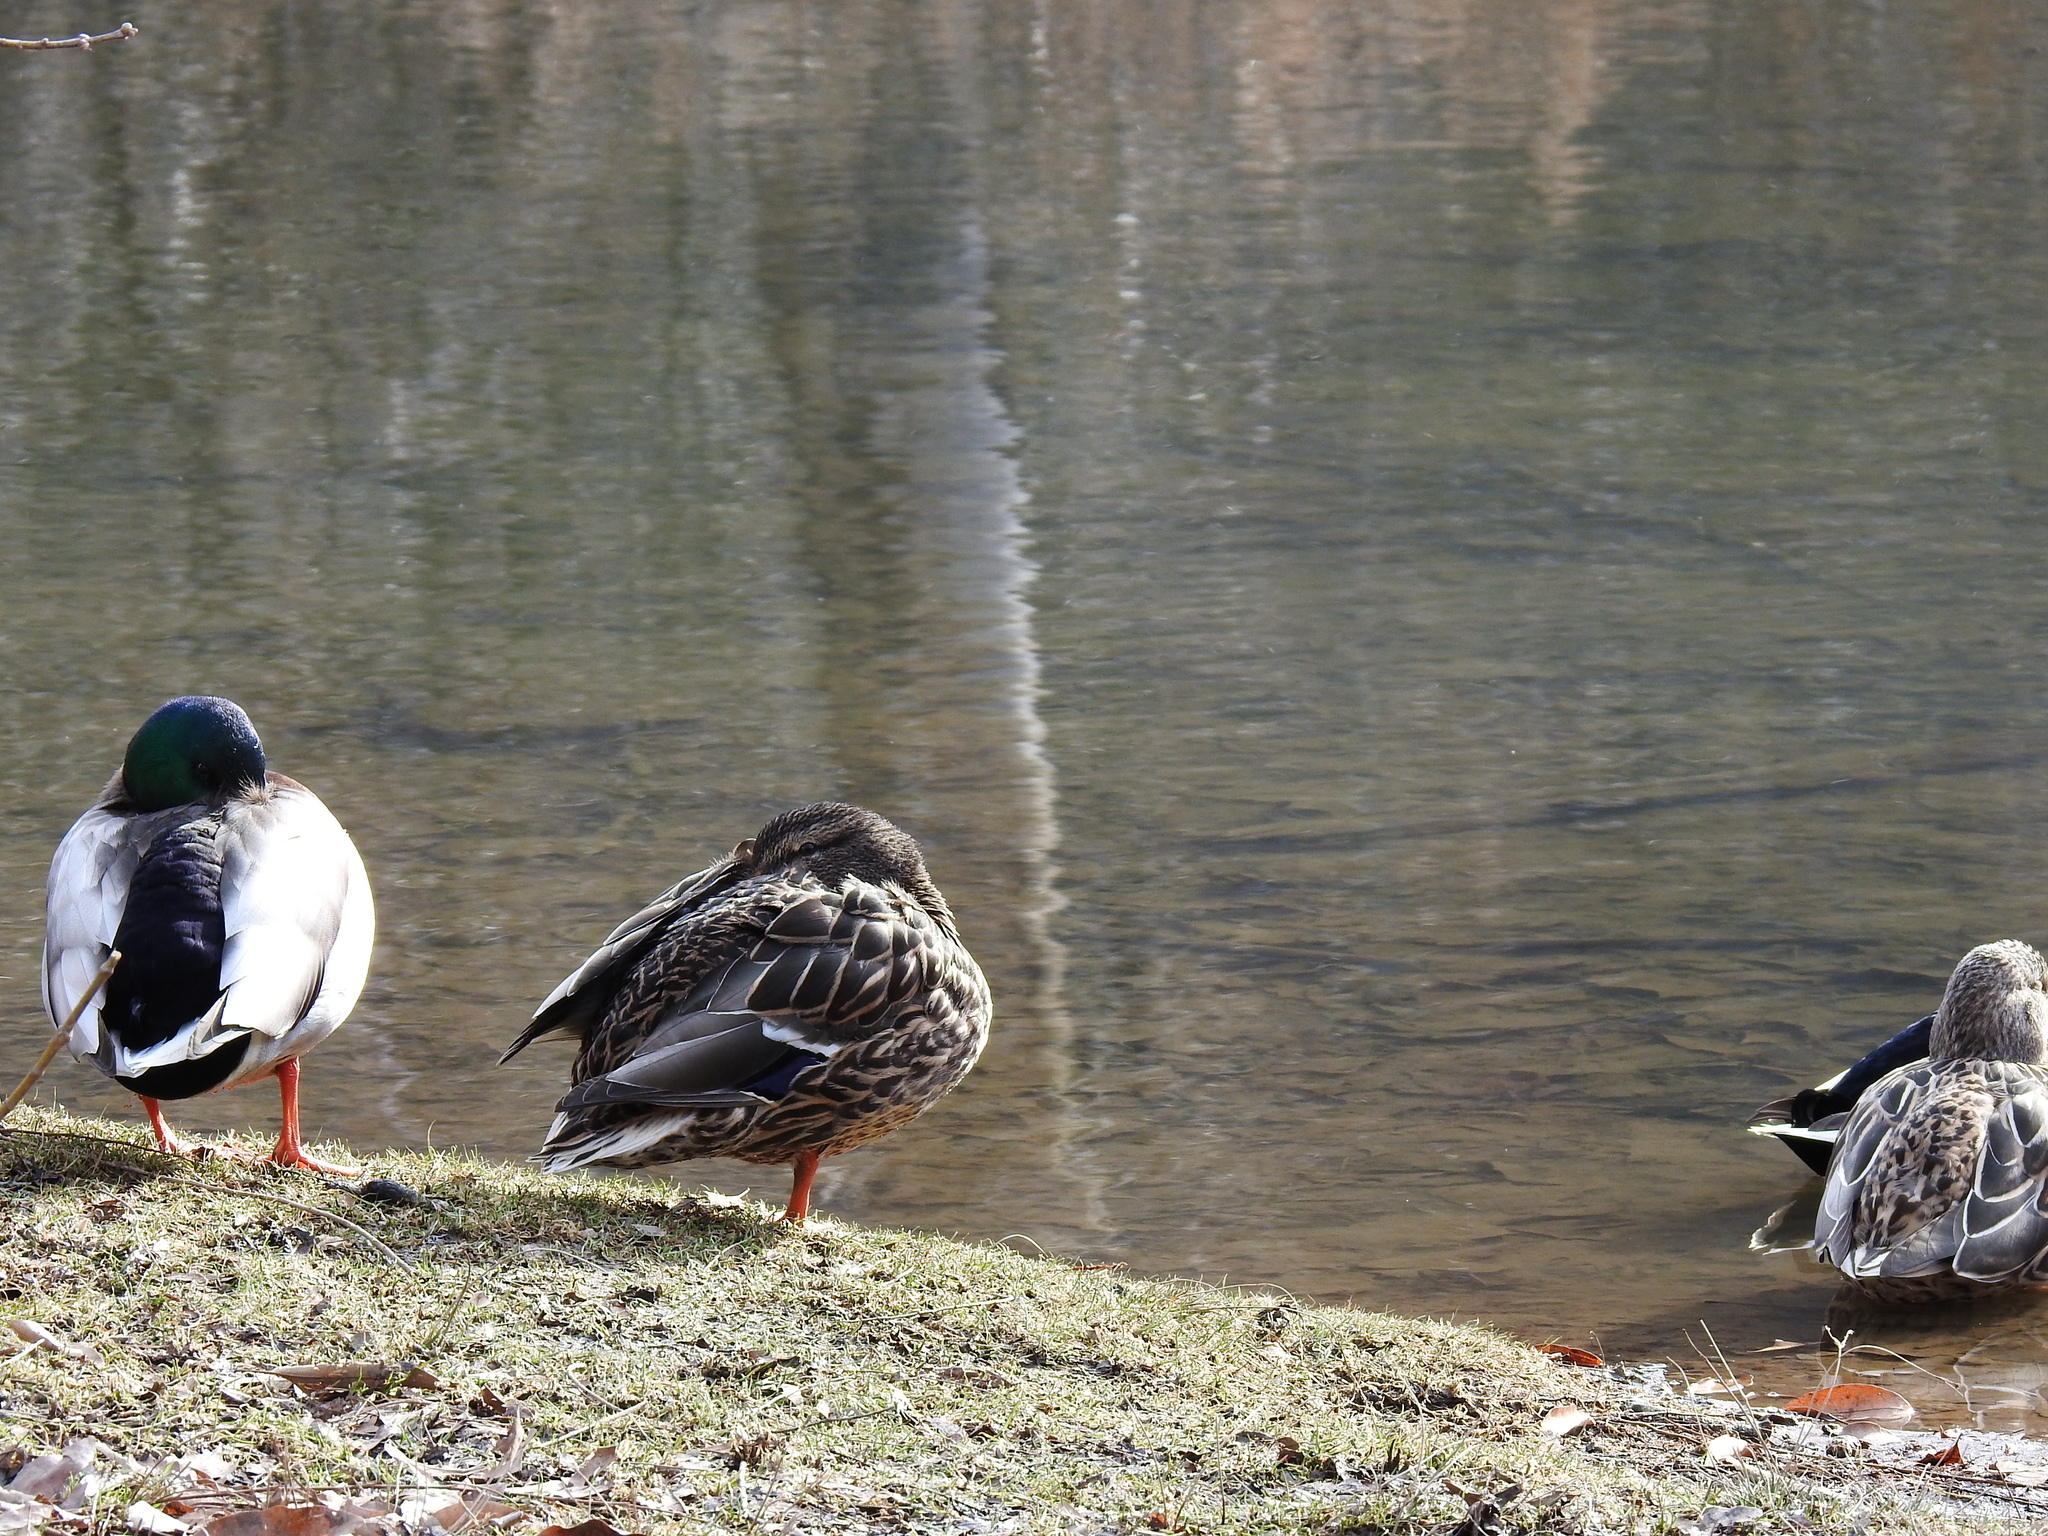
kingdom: Animalia
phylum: Chordata
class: Aves
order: Anseriformes
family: Anatidae
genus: Anas
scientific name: Anas platyrhynchos
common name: Mallard
